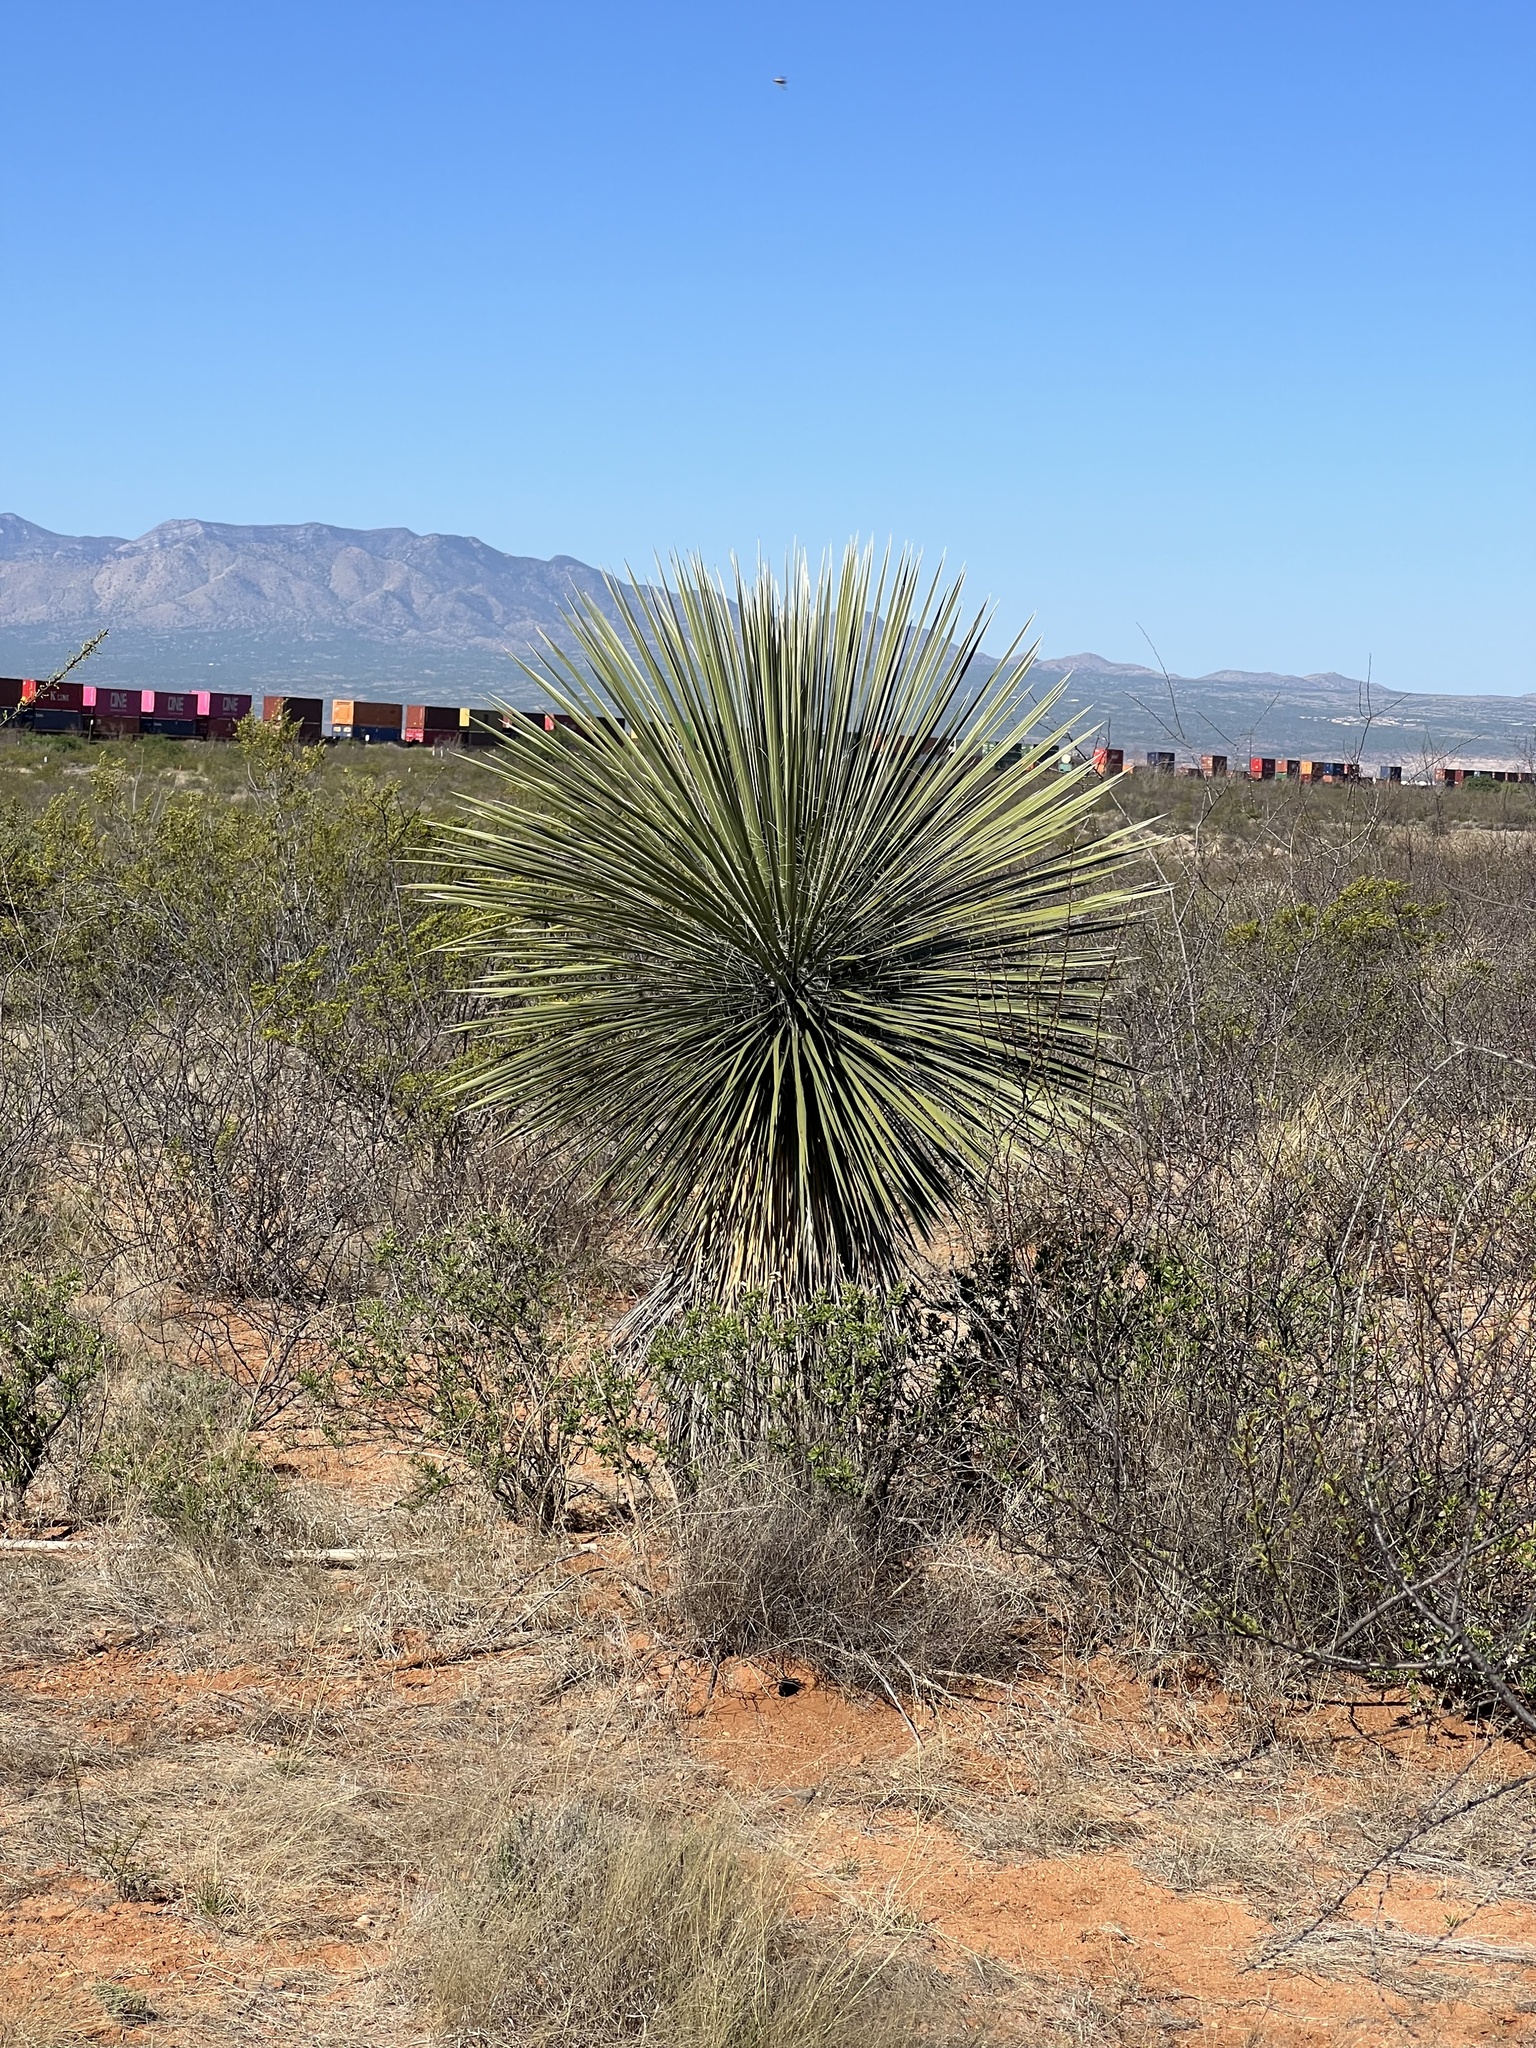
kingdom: Plantae
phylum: Tracheophyta
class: Liliopsida
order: Asparagales
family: Asparagaceae
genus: Yucca
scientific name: Yucca elata
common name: Palmella
